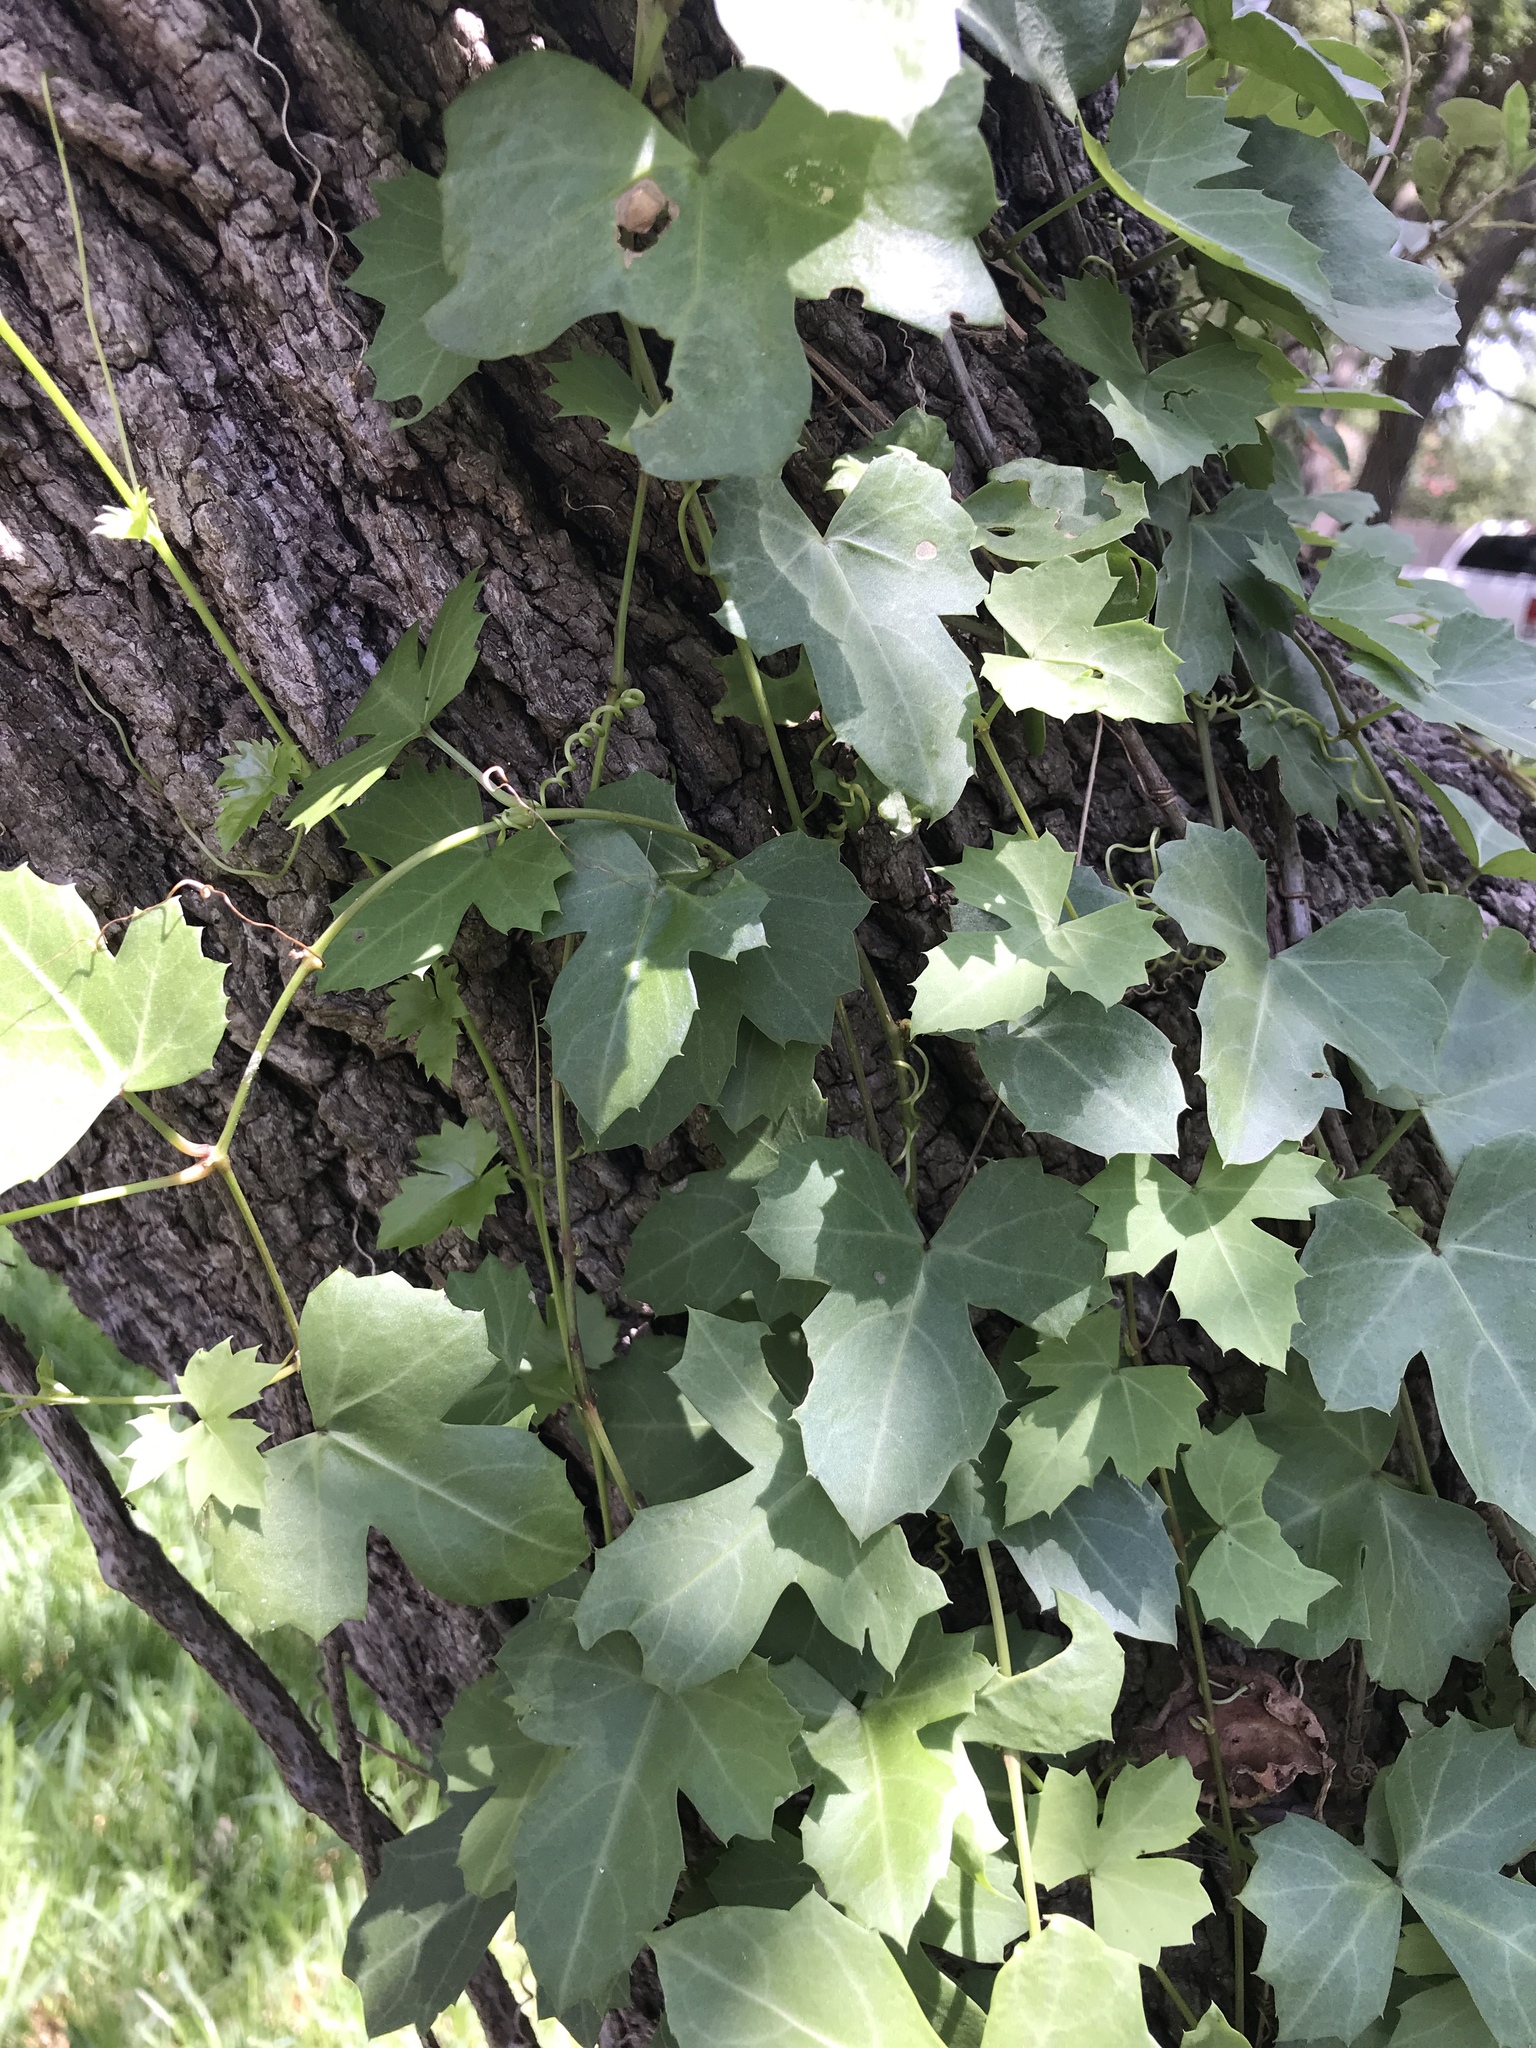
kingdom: Plantae
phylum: Tracheophyta
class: Magnoliopsida
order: Vitales
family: Vitaceae
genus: Cissus
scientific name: Cissus trifoliata
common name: Vine-sorrel
